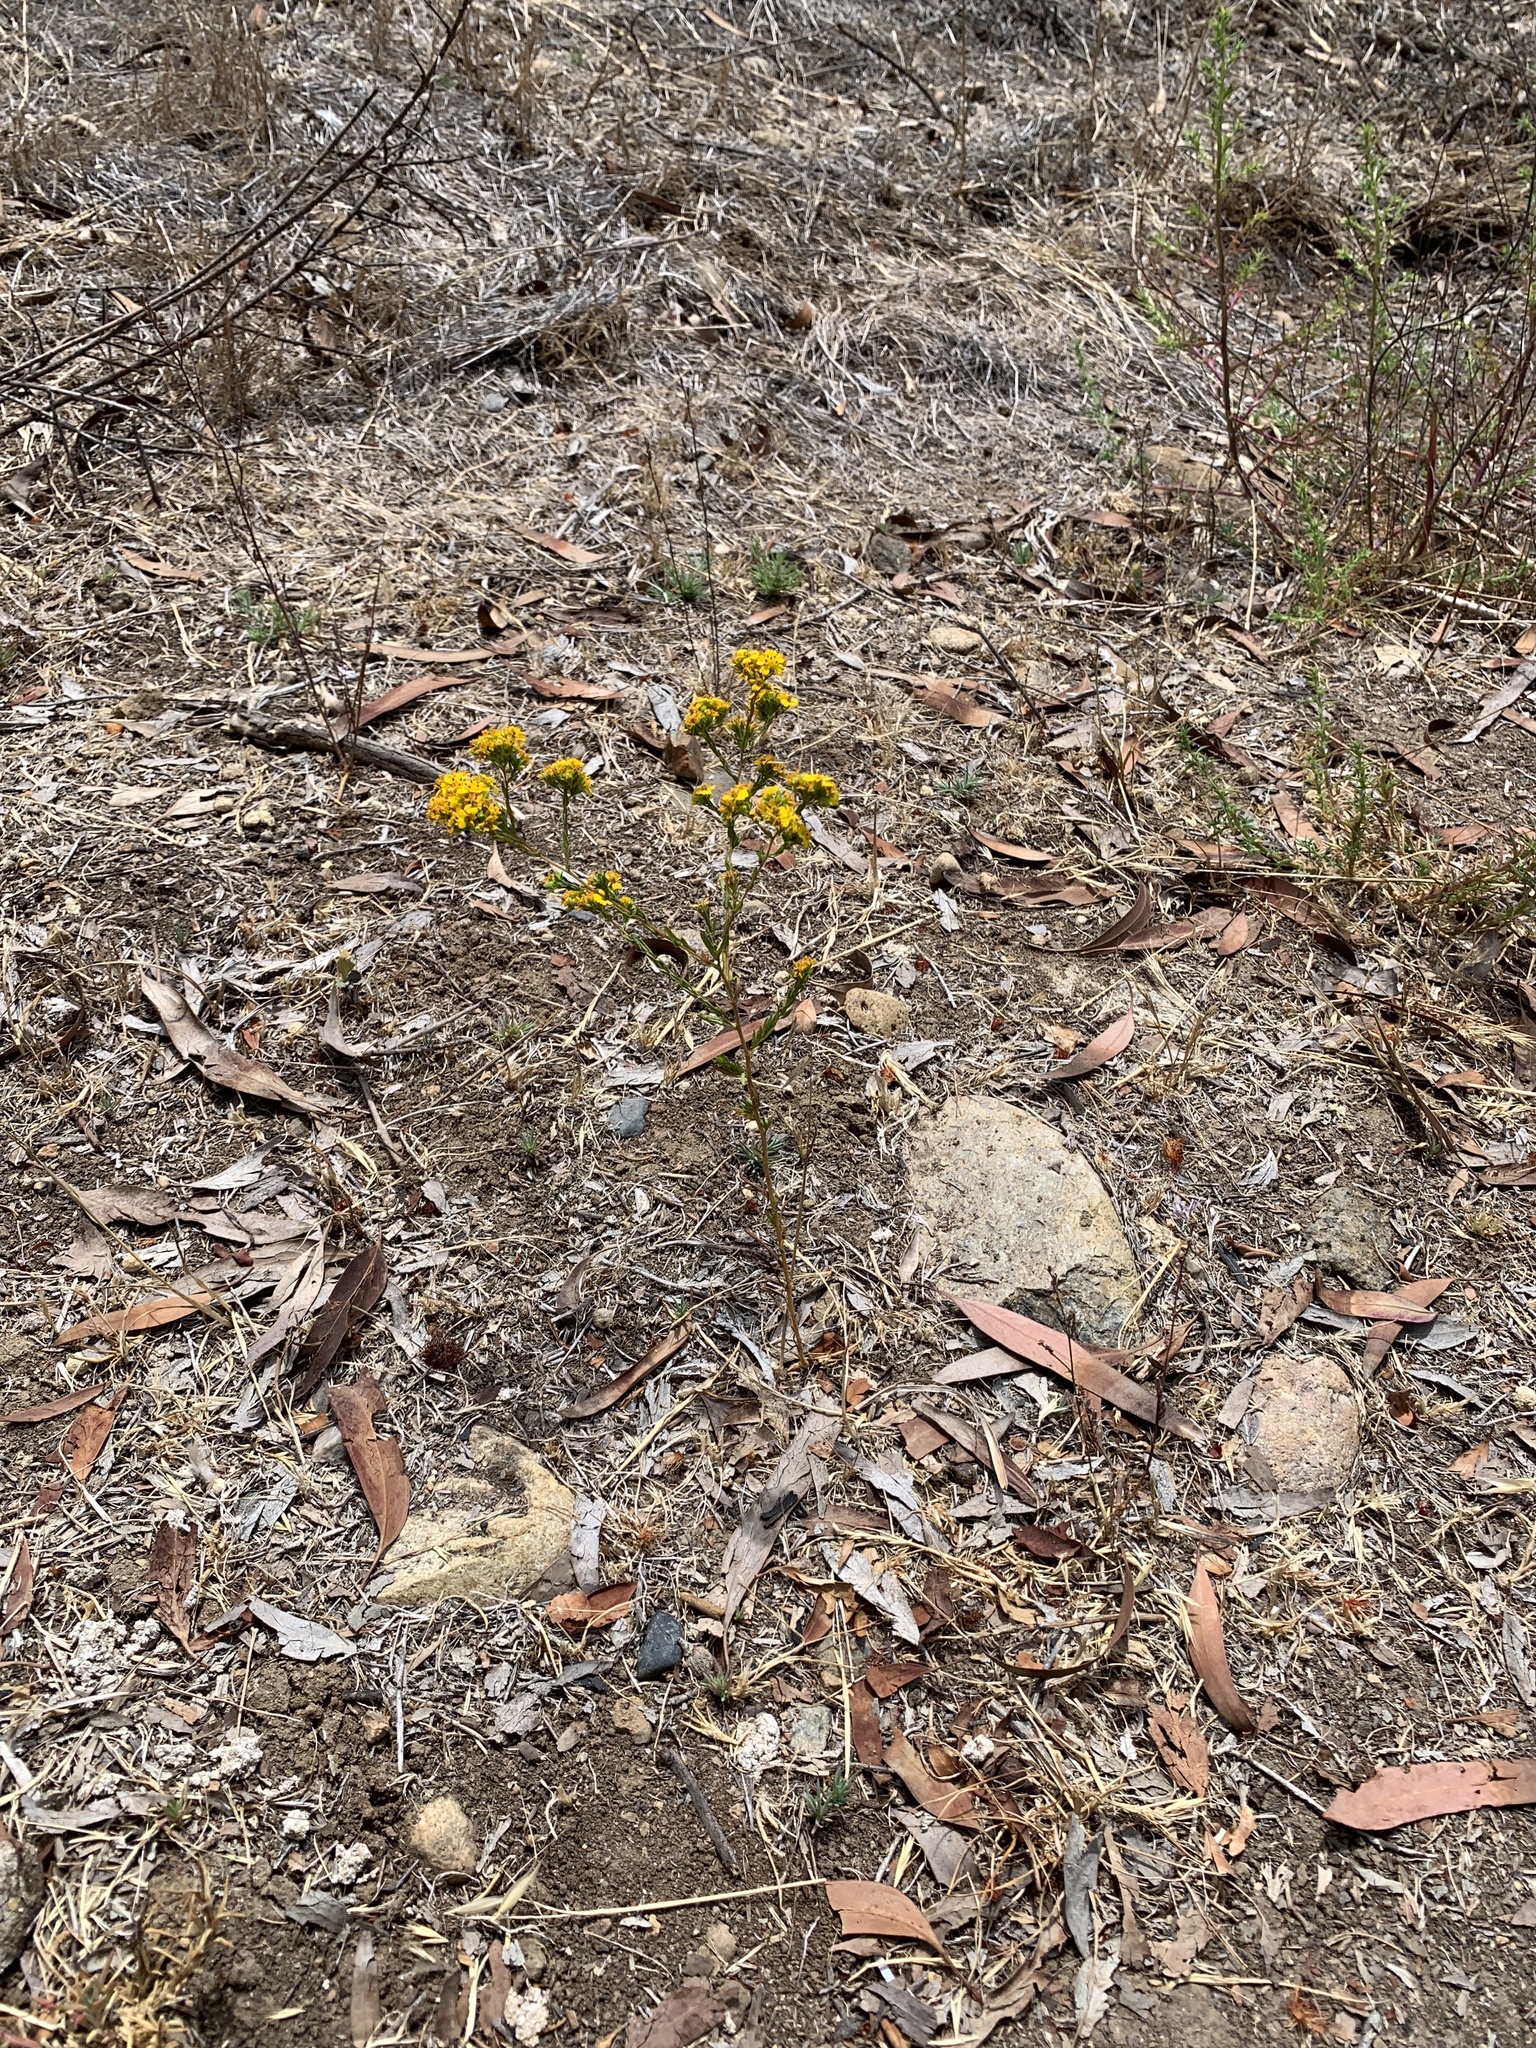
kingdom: Plantae
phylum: Tracheophyta
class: Magnoliopsida
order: Asterales
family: Asteraceae
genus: Deinandra
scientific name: Deinandra fasciculata
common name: Clustered tarweed
